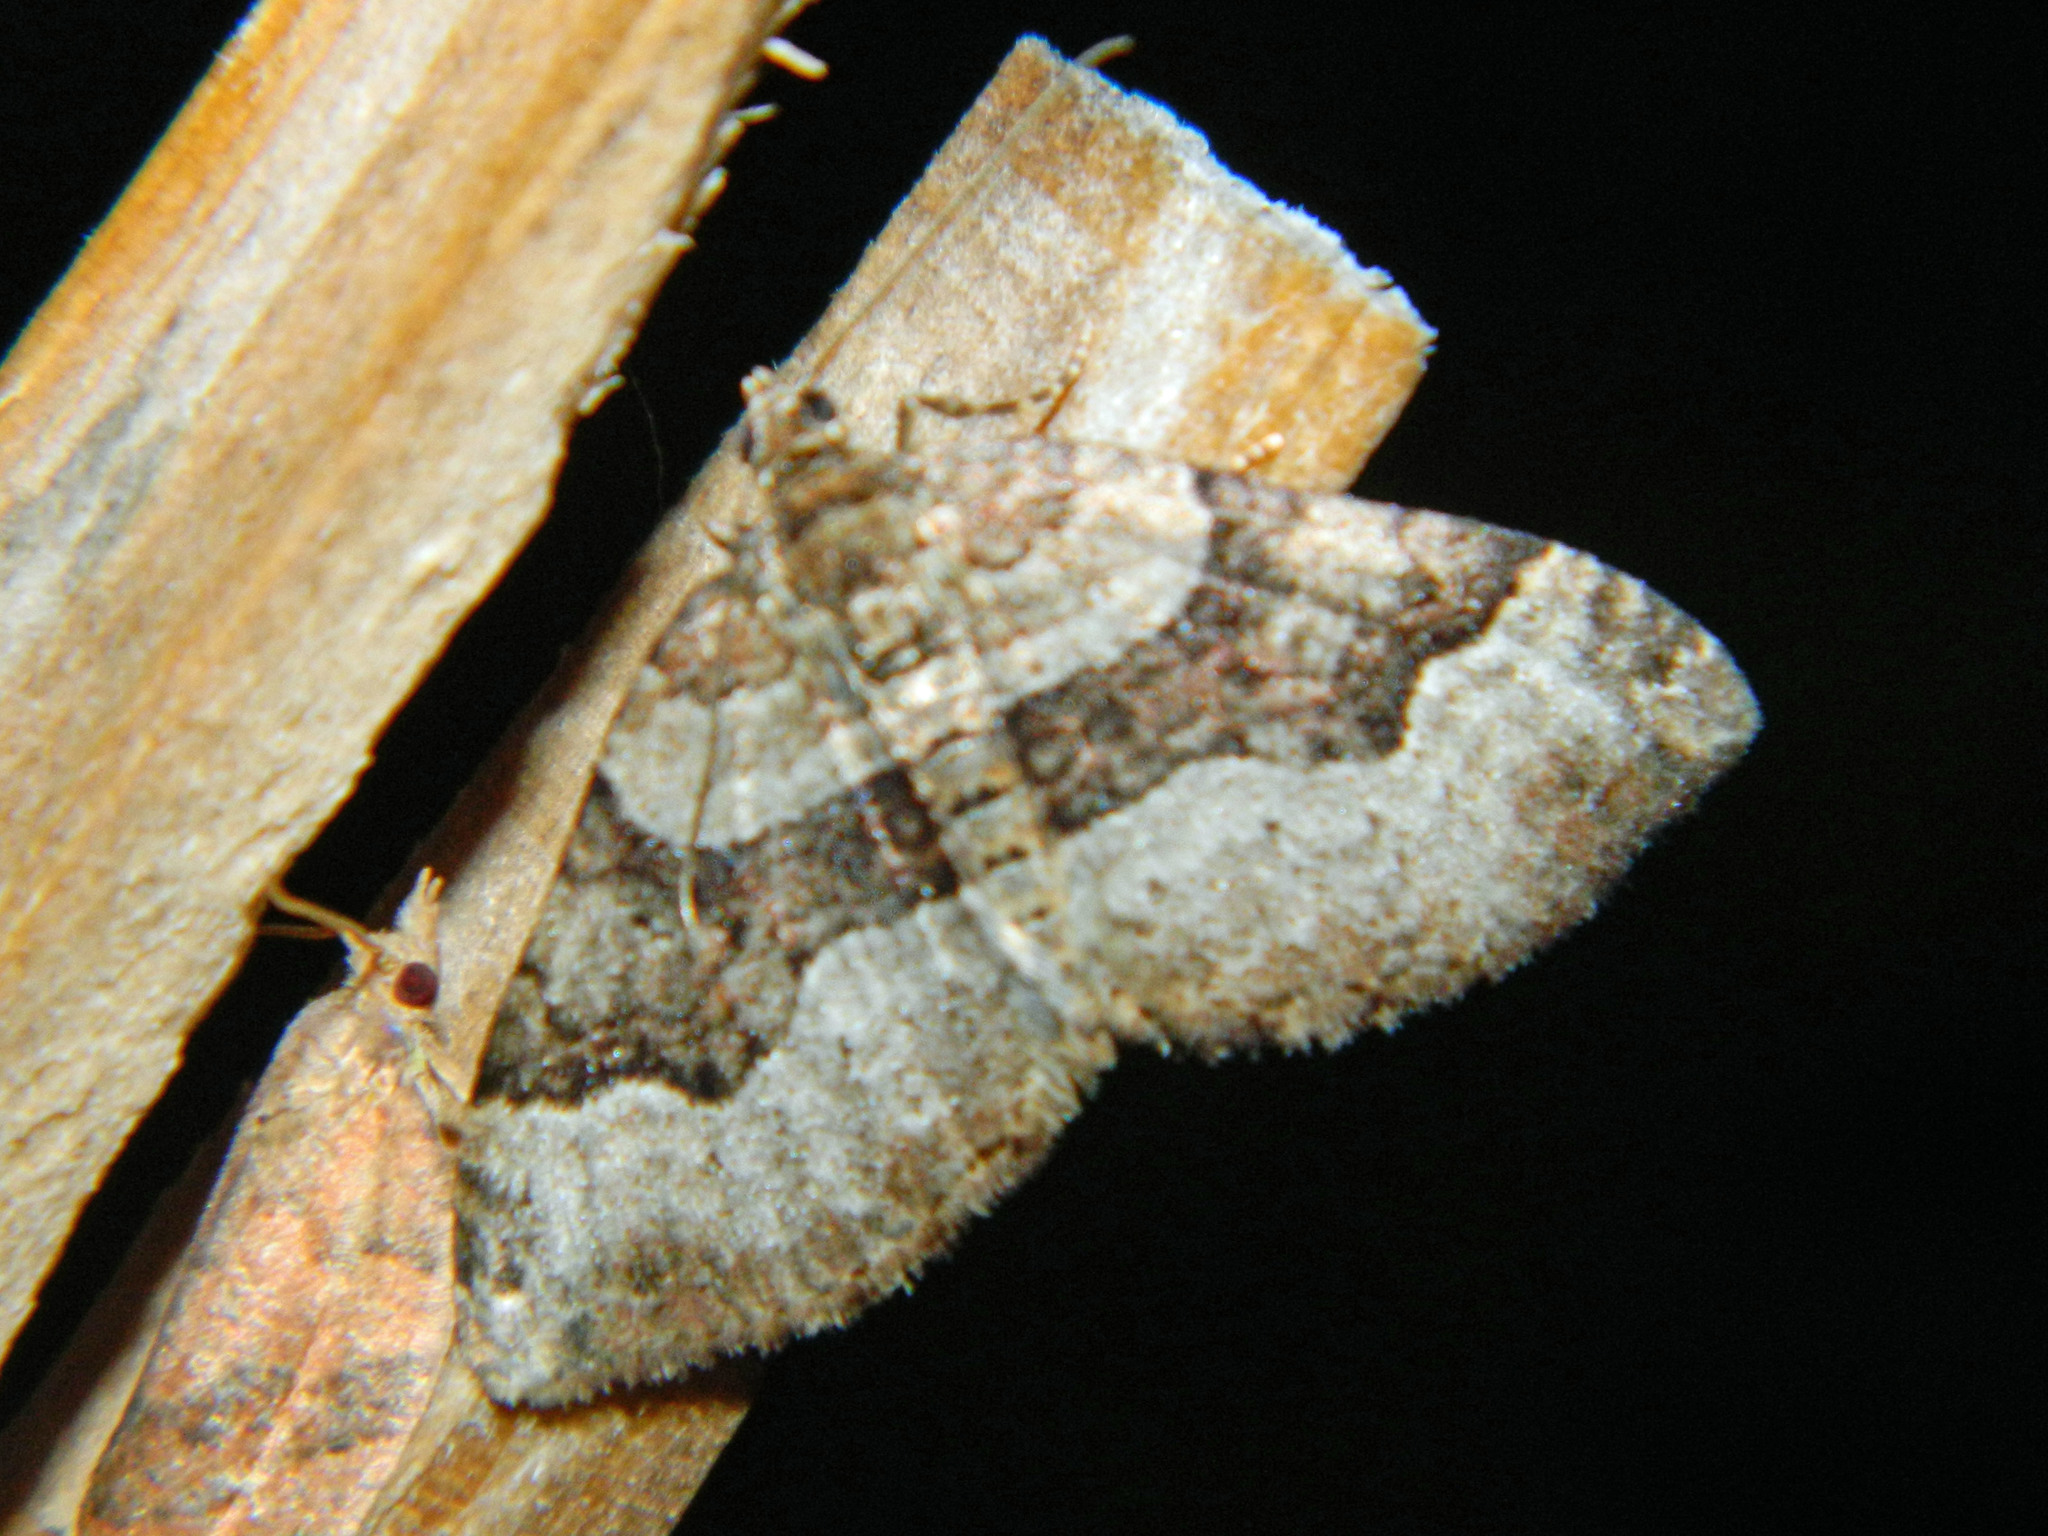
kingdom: Animalia
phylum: Arthropoda
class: Insecta
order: Lepidoptera
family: Geometridae
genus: Xanthorhoe
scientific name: Xanthorhoe lacustrata
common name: Toothed brown carpet
